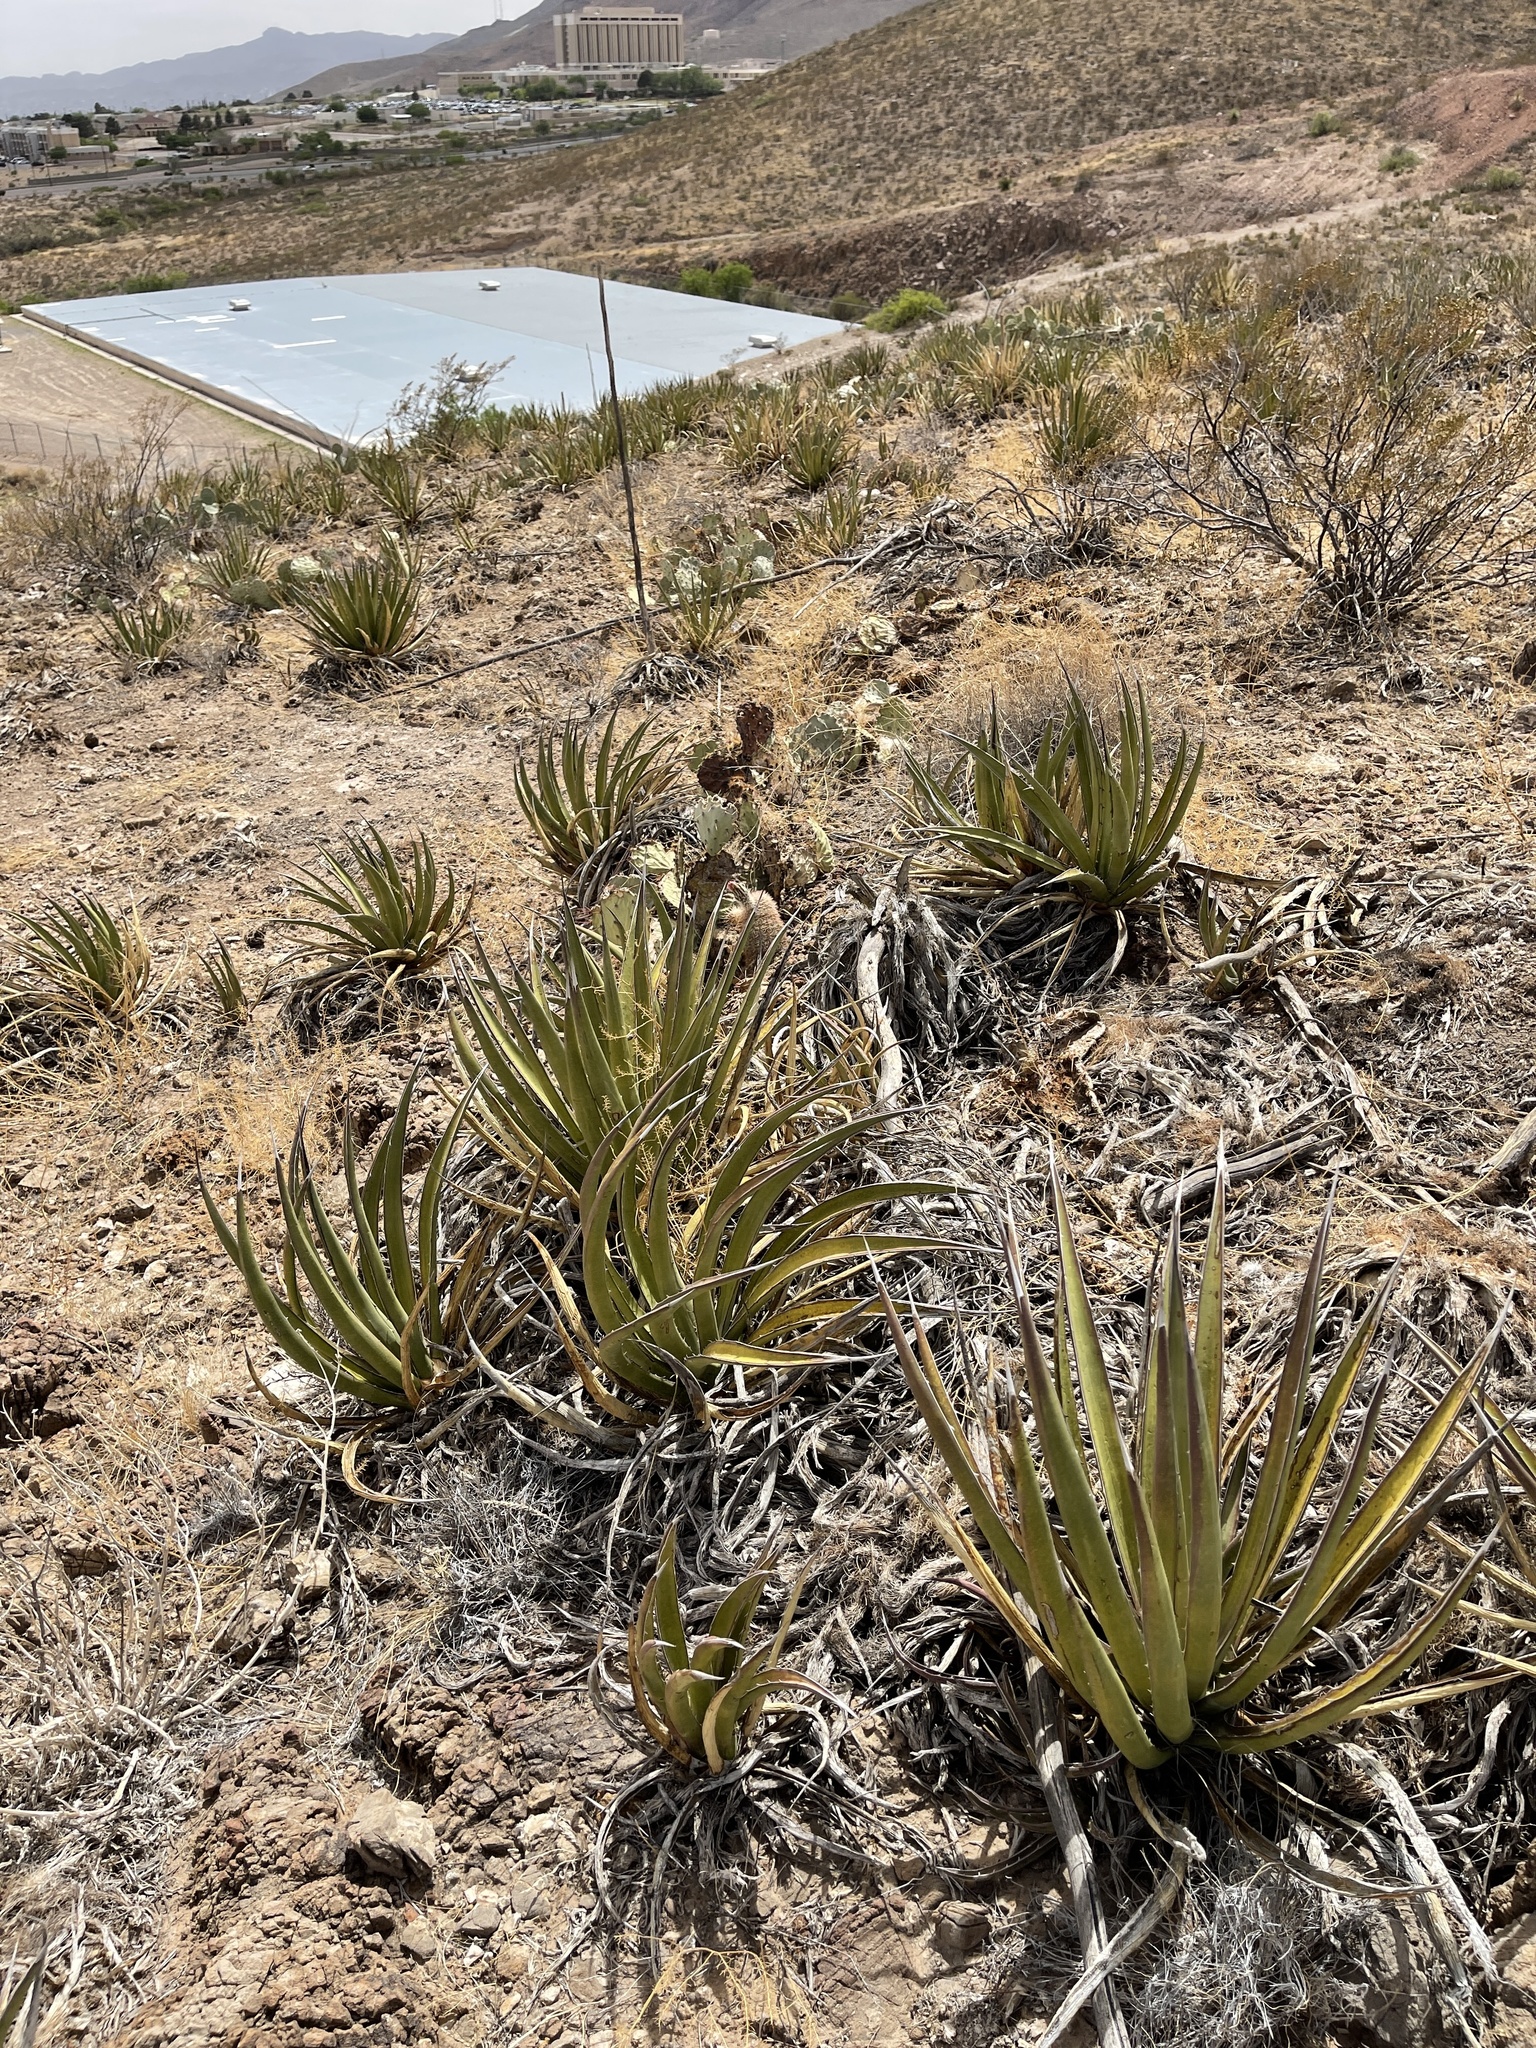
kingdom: Plantae
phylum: Tracheophyta
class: Liliopsida
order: Asparagales
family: Asparagaceae
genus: Agave
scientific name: Agave lechuguilla
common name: Lecheguilla agave
